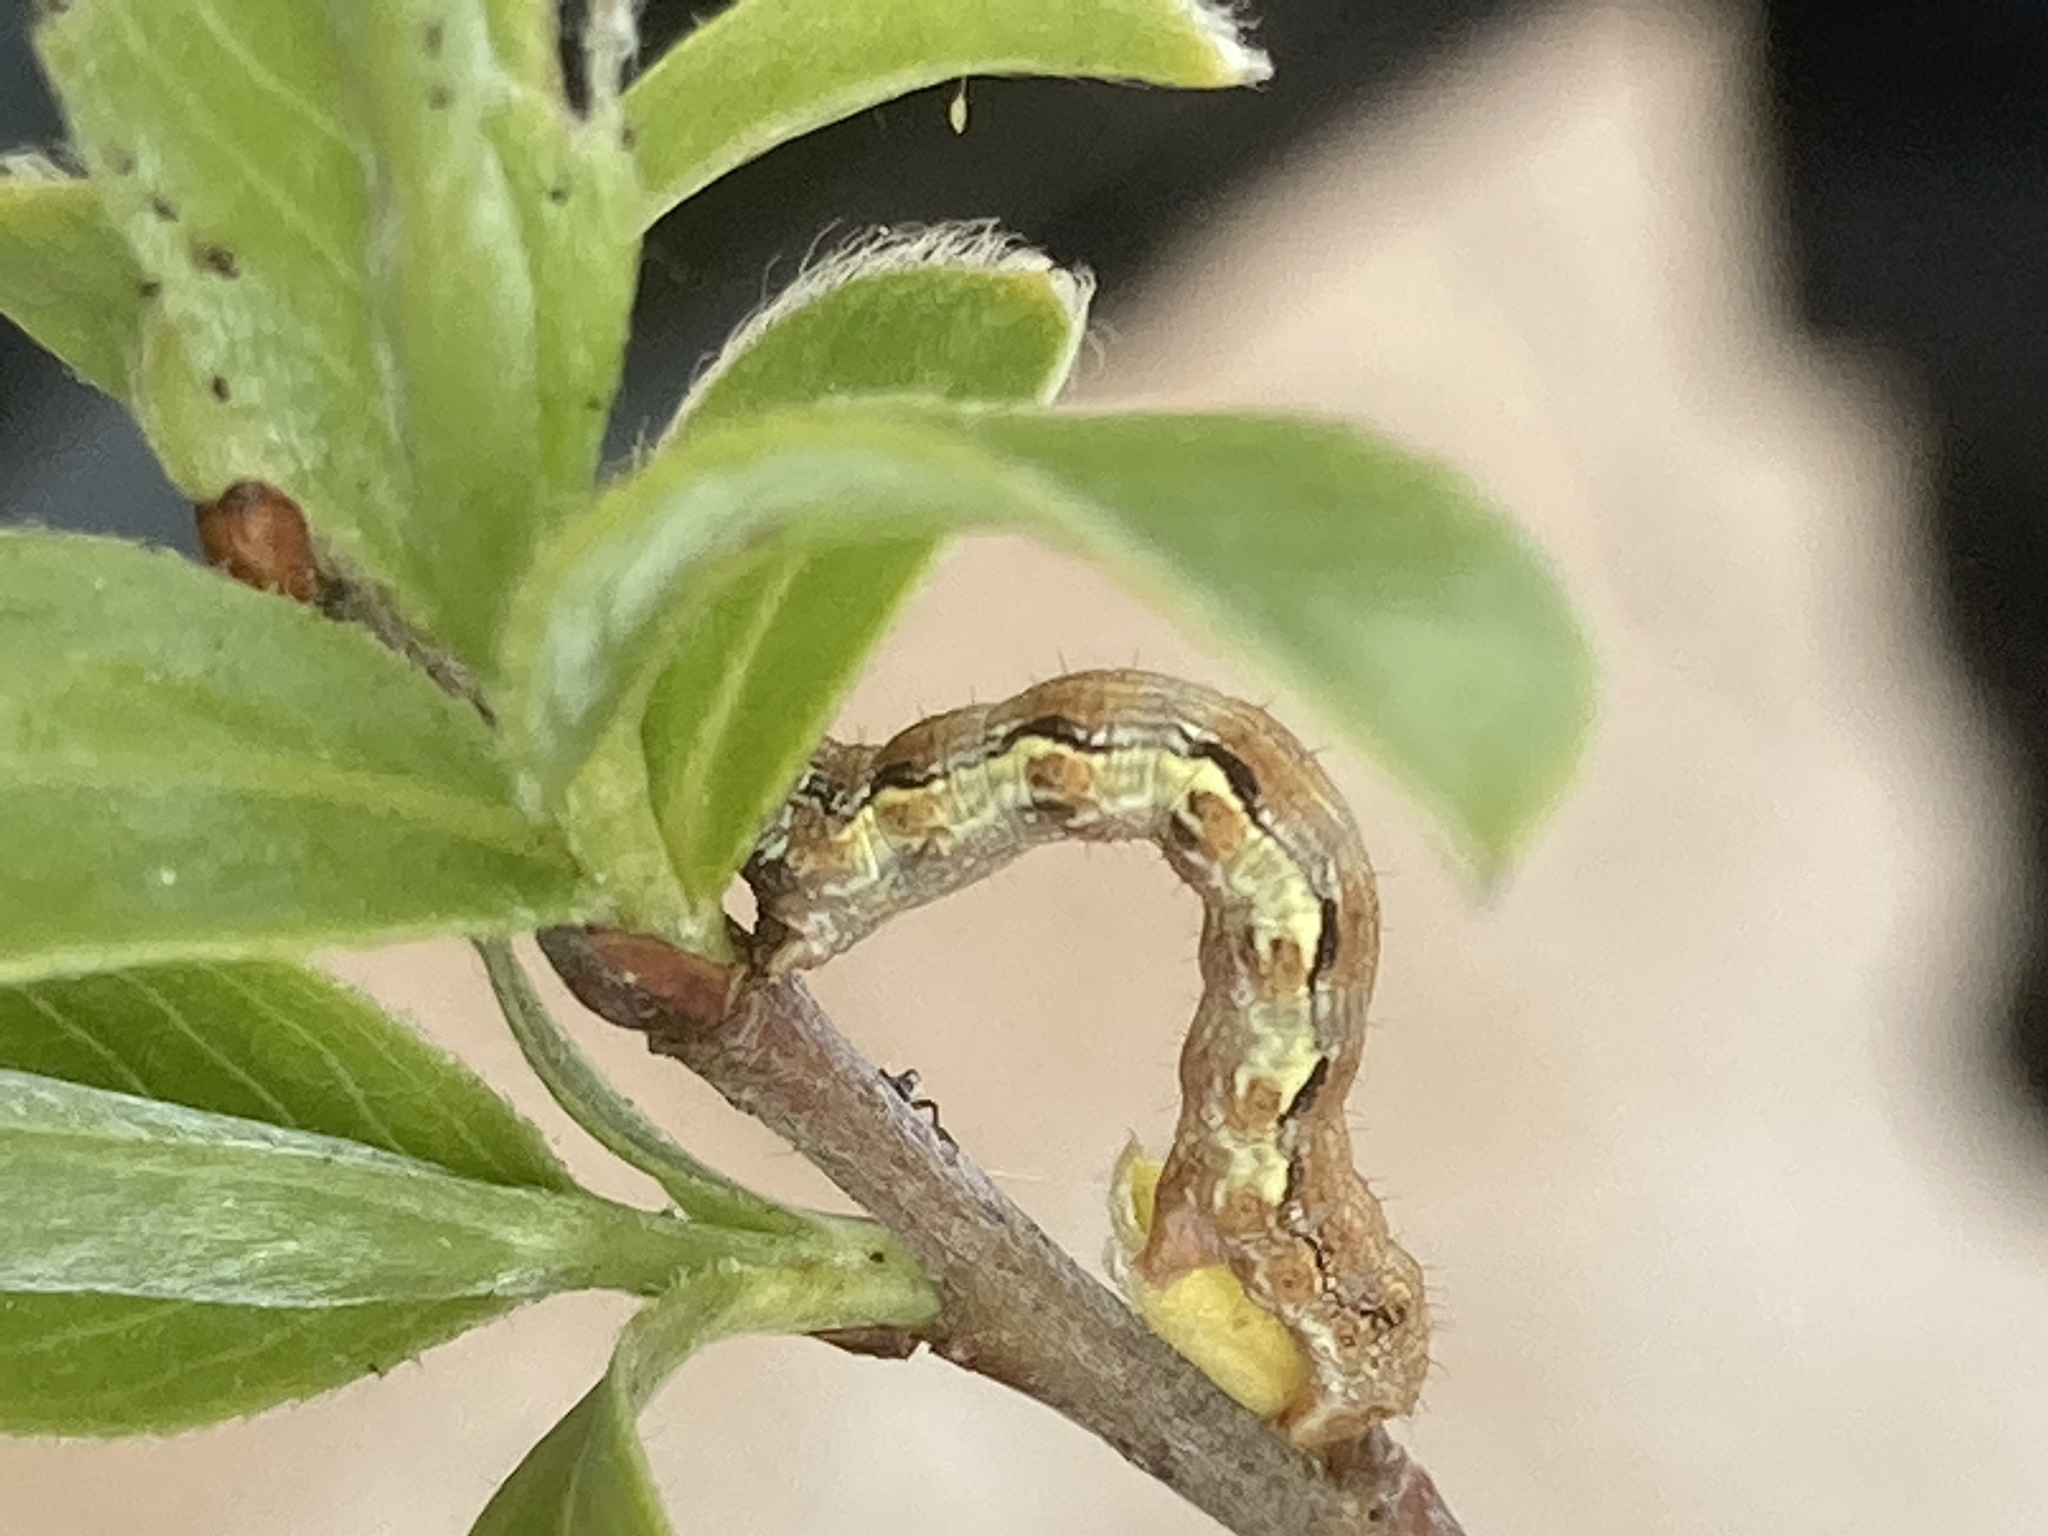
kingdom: Animalia
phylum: Arthropoda
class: Insecta
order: Lepidoptera
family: Geometridae
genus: Erannis
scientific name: Erannis defoliaria
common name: Mottled umber
